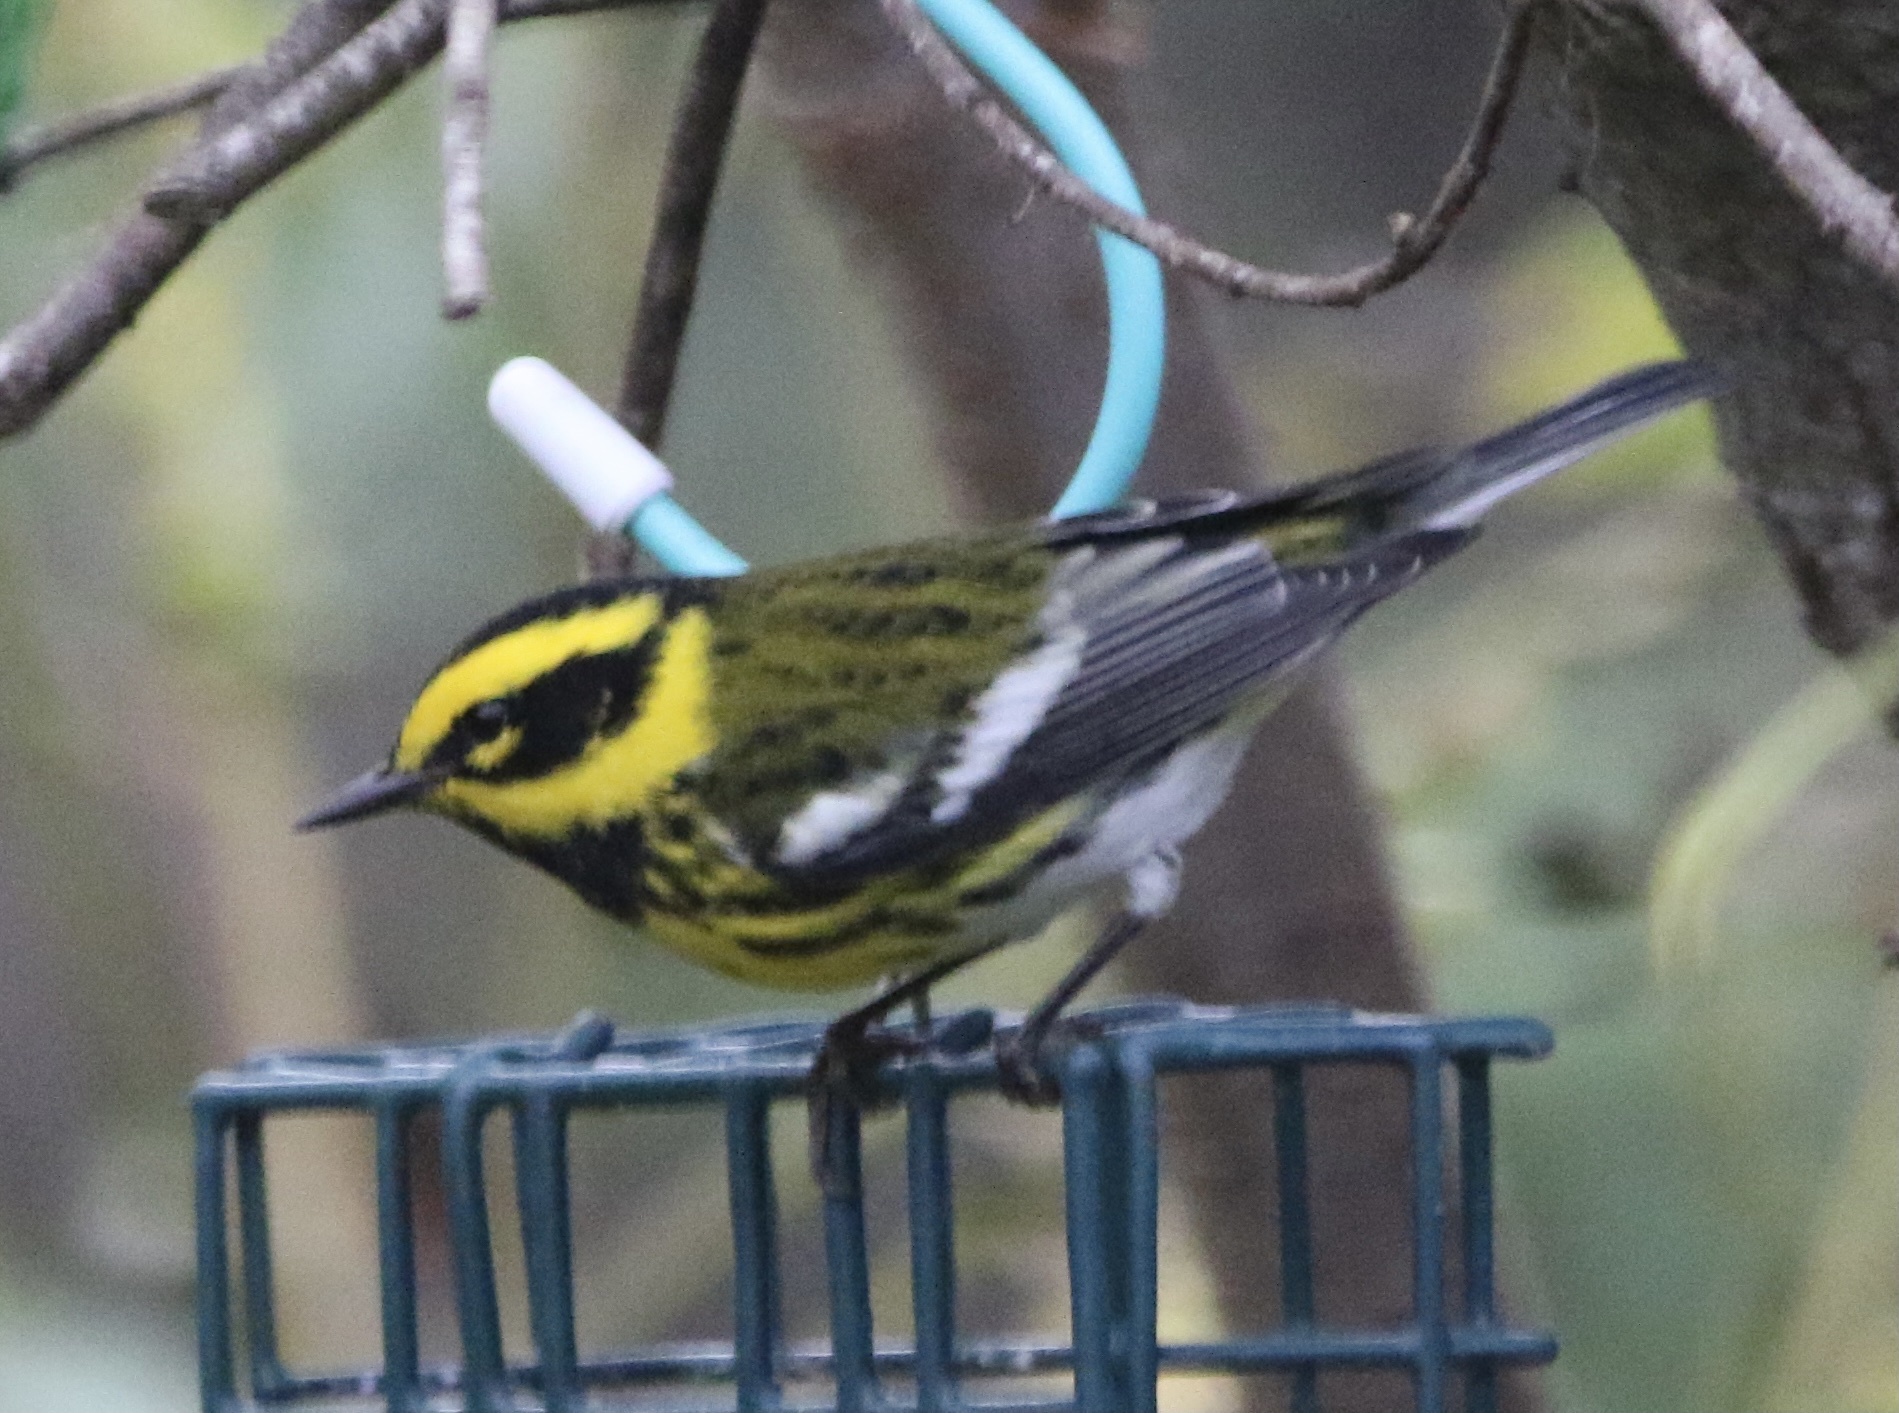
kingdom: Animalia
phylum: Chordata
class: Aves
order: Passeriformes
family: Parulidae
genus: Setophaga
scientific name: Setophaga townsendi
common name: Townsend's warbler
